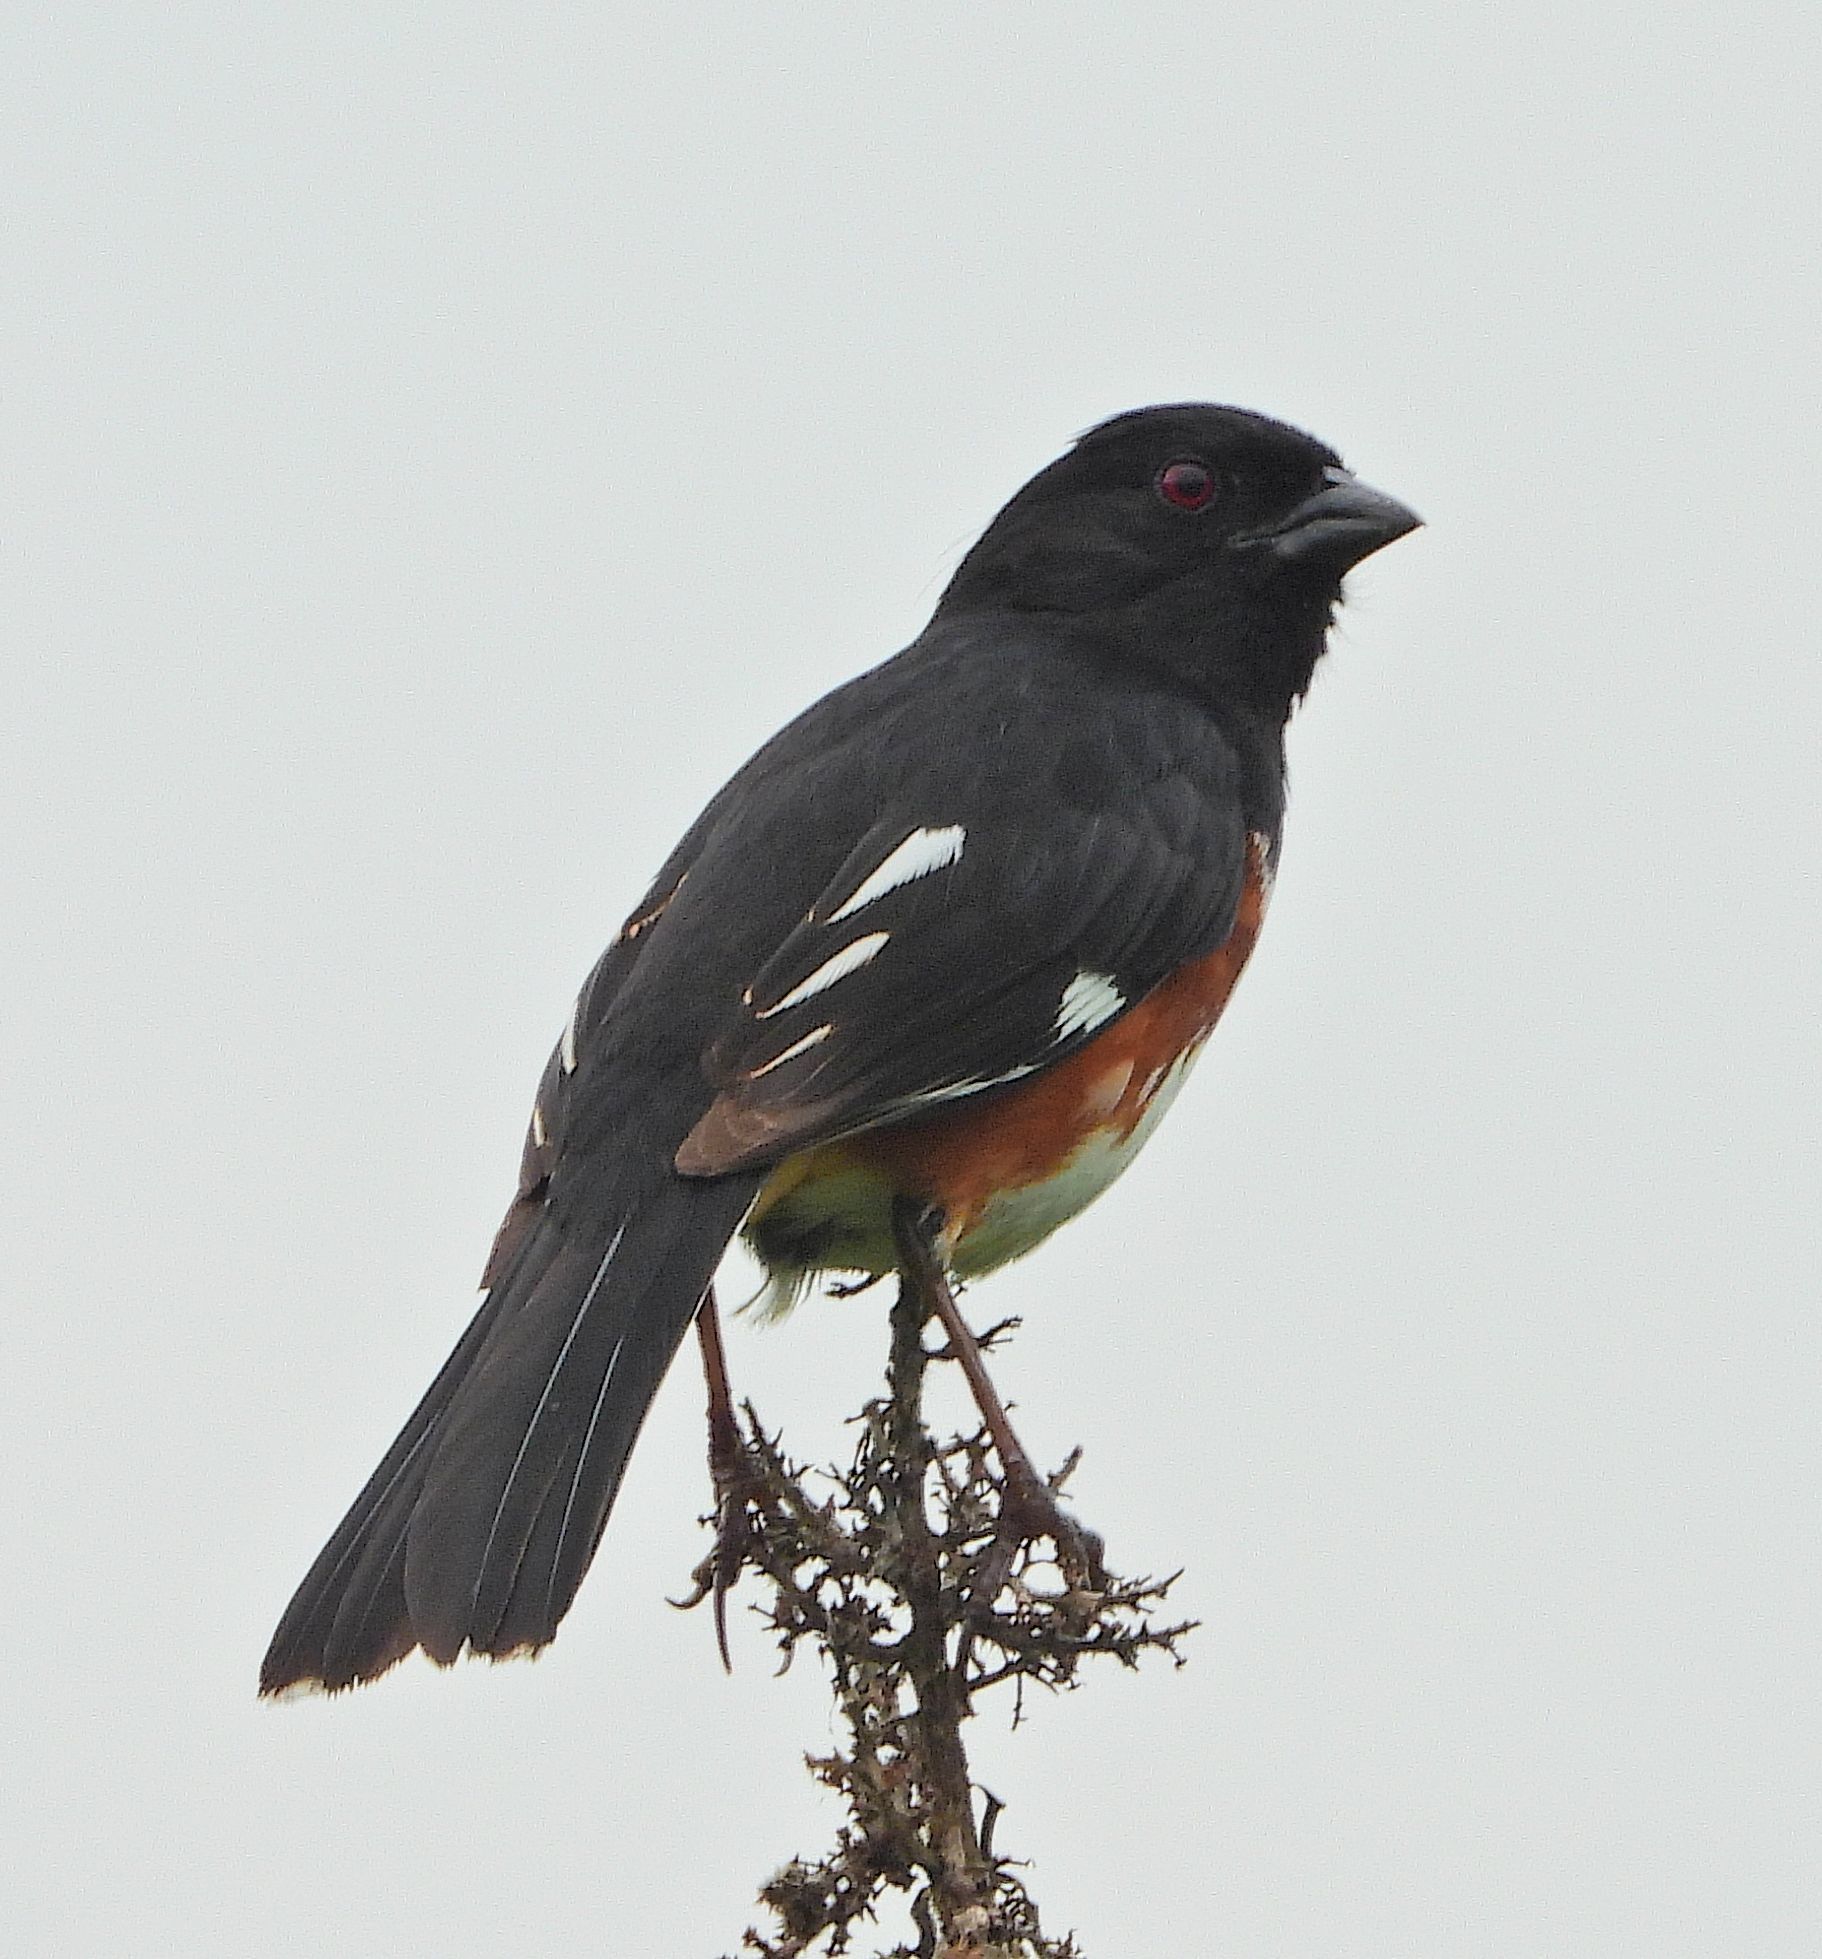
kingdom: Animalia
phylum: Chordata
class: Aves
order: Passeriformes
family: Passerellidae
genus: Pipilo
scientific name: Pipilo erythrophthalmus
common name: Eastern towhee
